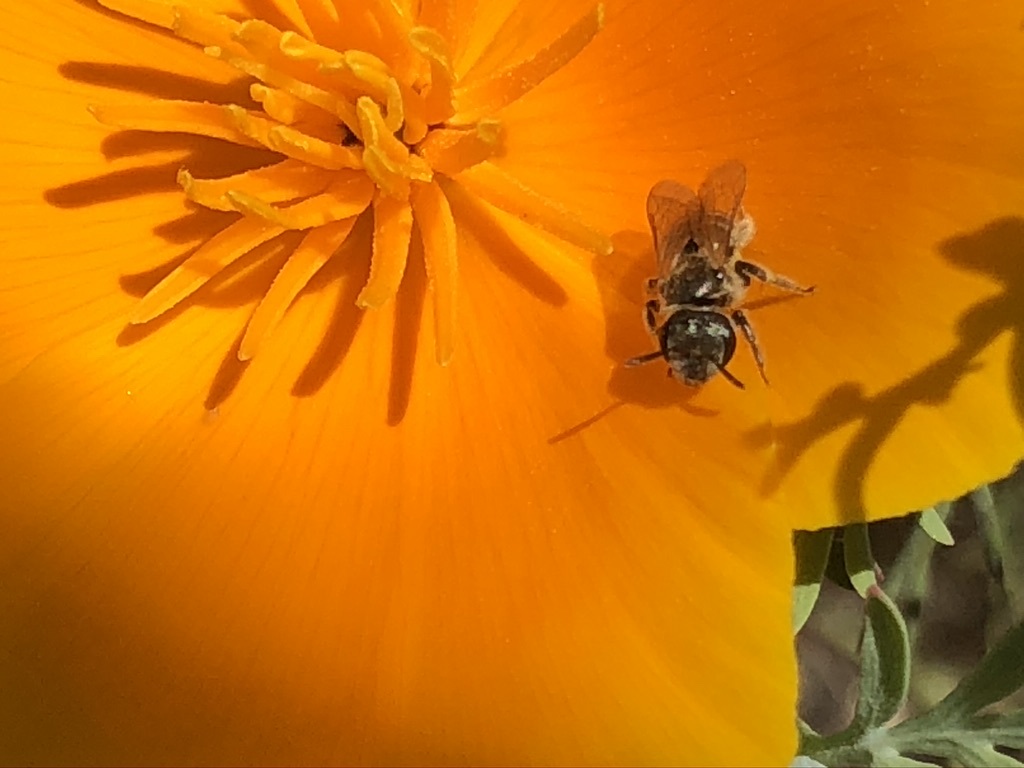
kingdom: Animalia
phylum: Chordata
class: Aves
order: Passeriformes
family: Passerellidae
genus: Melozone
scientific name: Melozone crissalis
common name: California towhee
